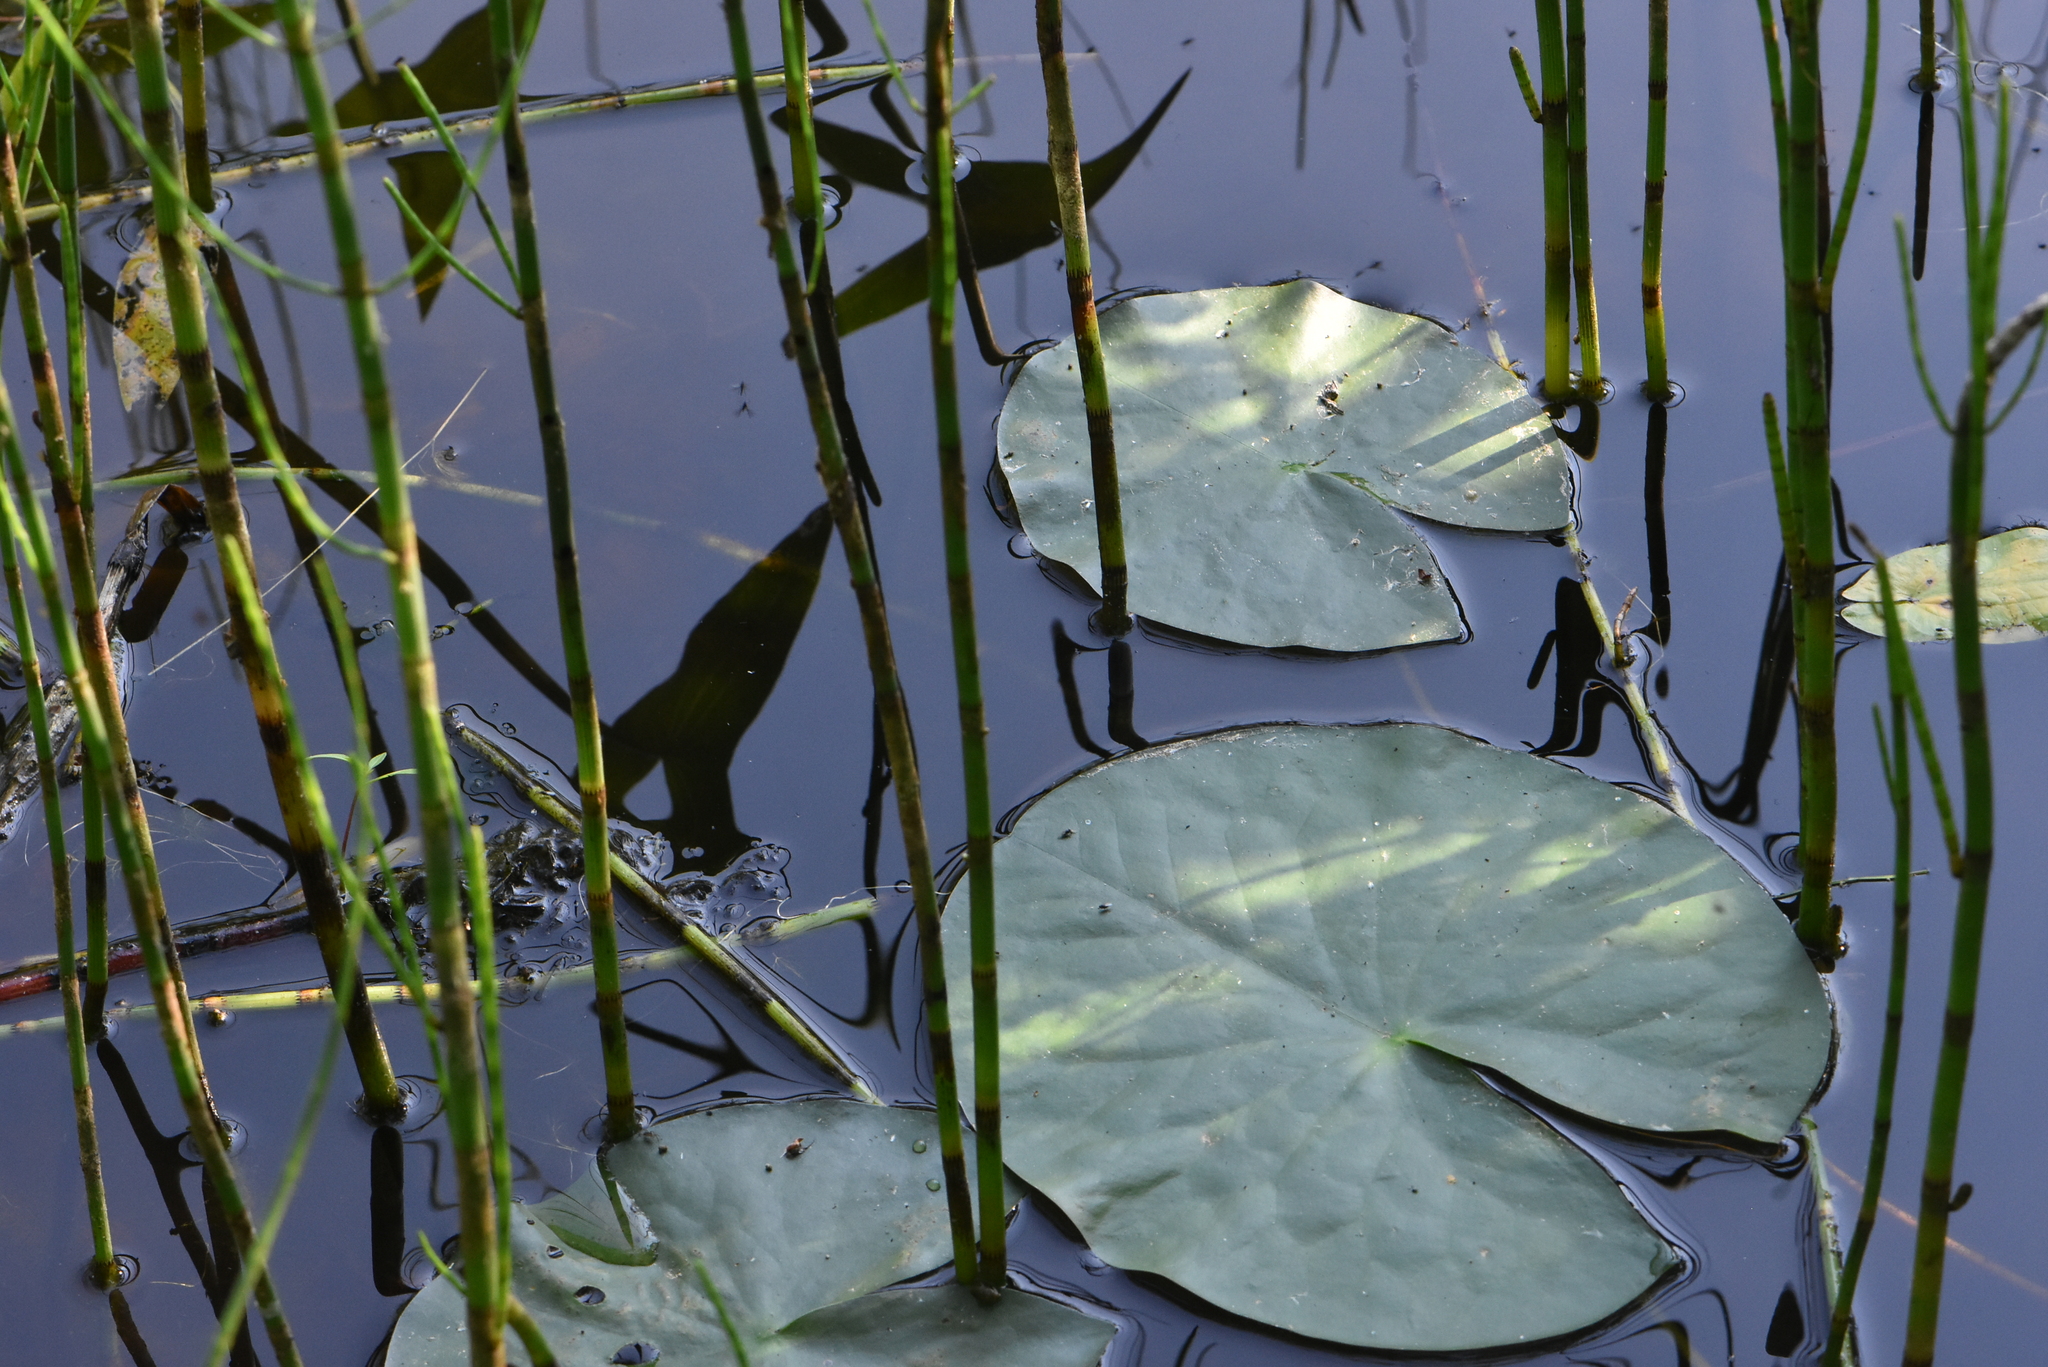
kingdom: Plantae
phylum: Tracheophyta
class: Magnoliopsida
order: Nymphaeales
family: Nymphaeaceae
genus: Nymphaea
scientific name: Nymphaea candida
